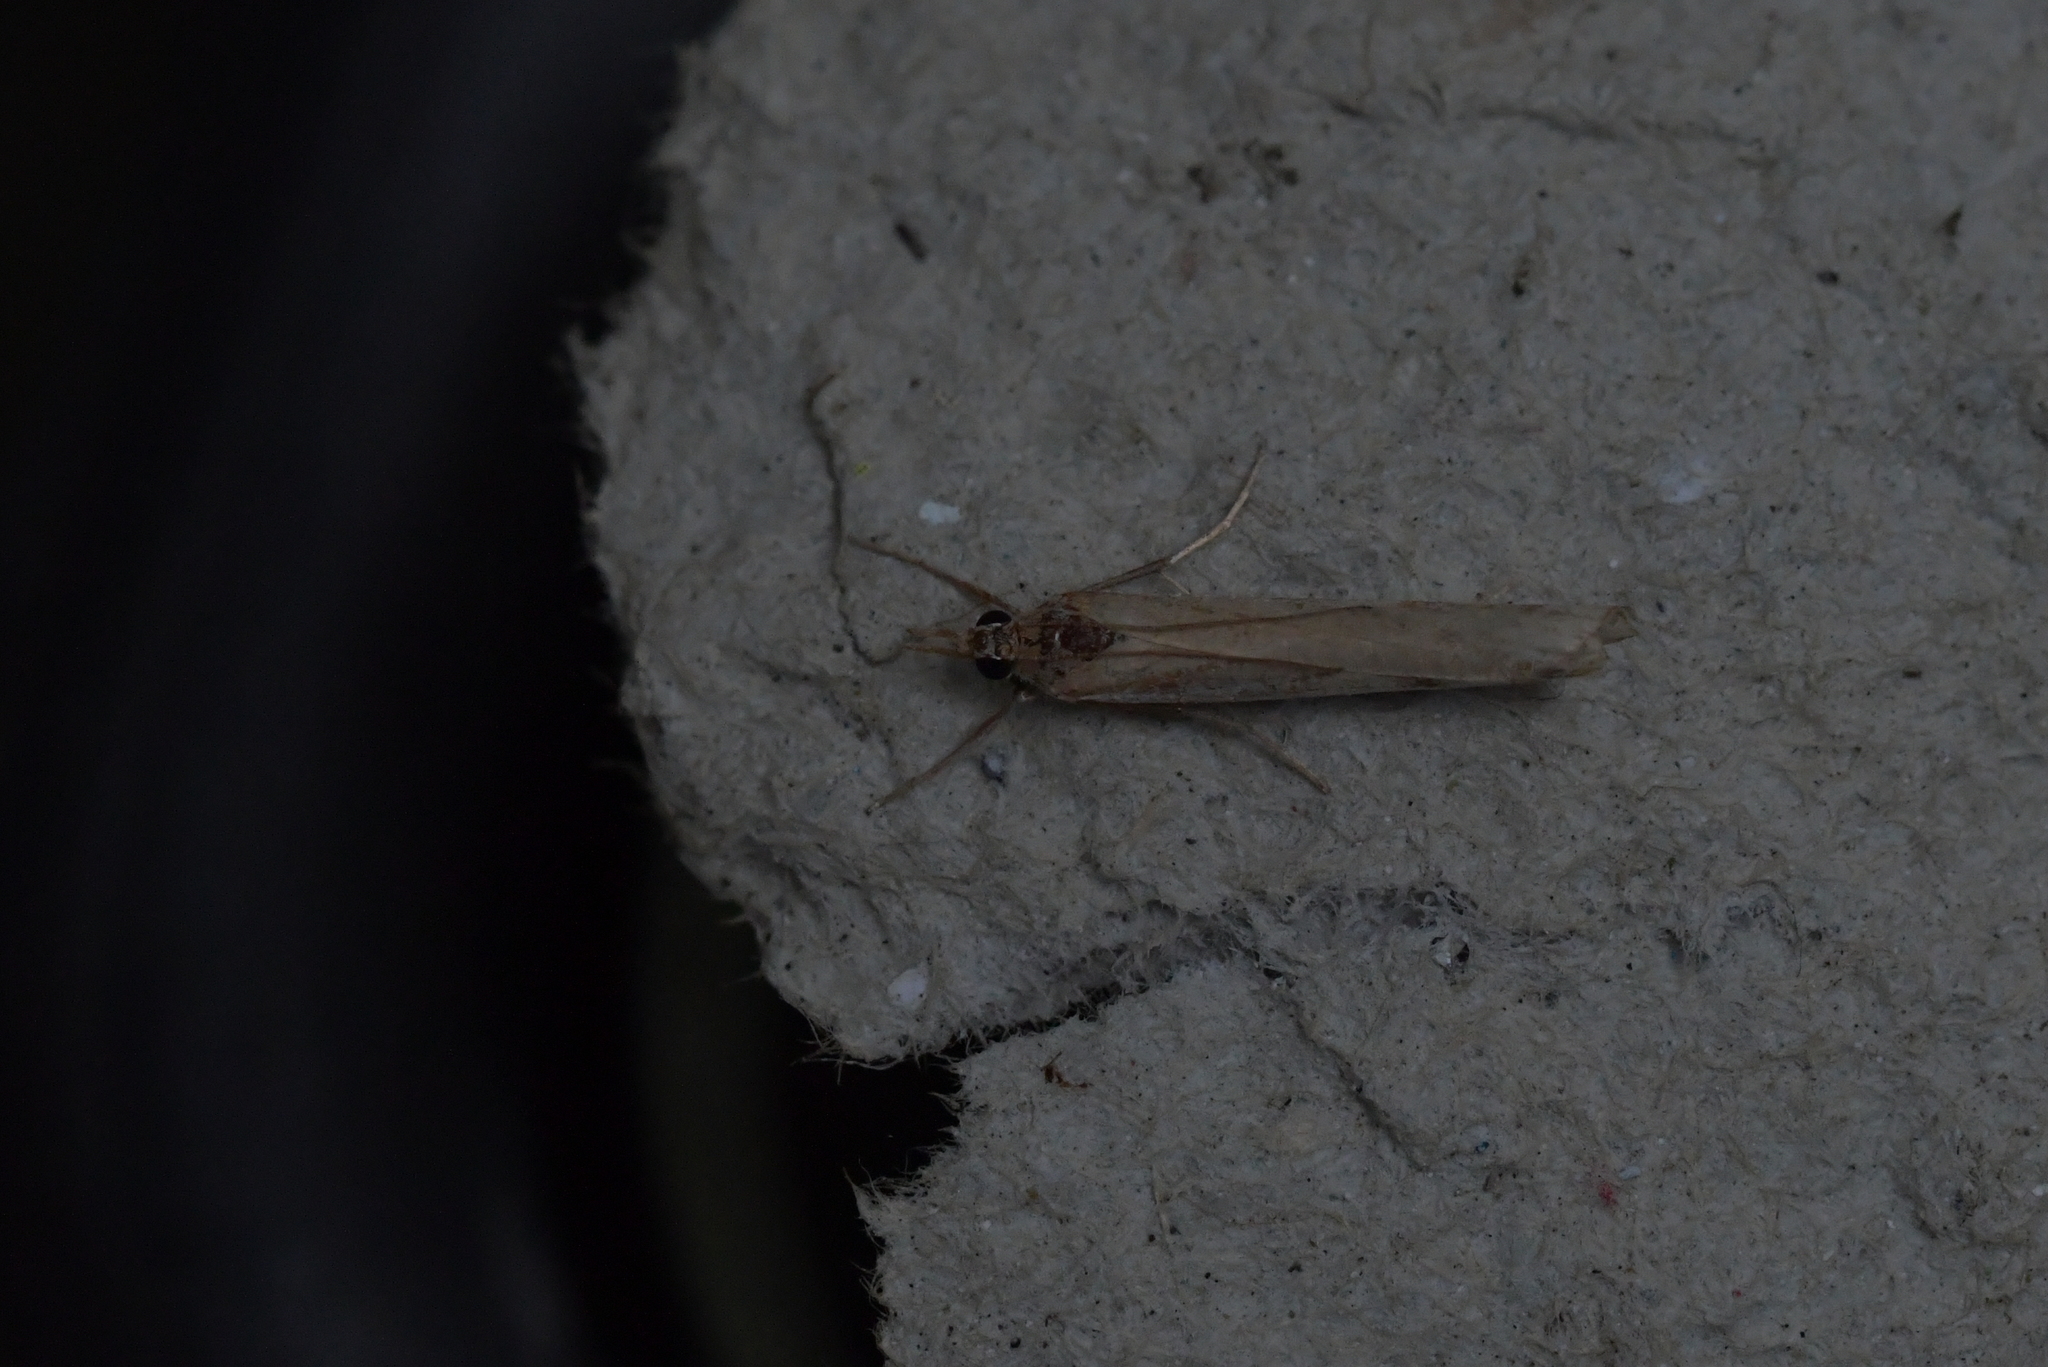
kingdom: Animalia
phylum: Arthropoda
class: Insecta
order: Lepidoptera
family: Crambidae
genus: Orocrambus
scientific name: Orocrambus flexuosellus
